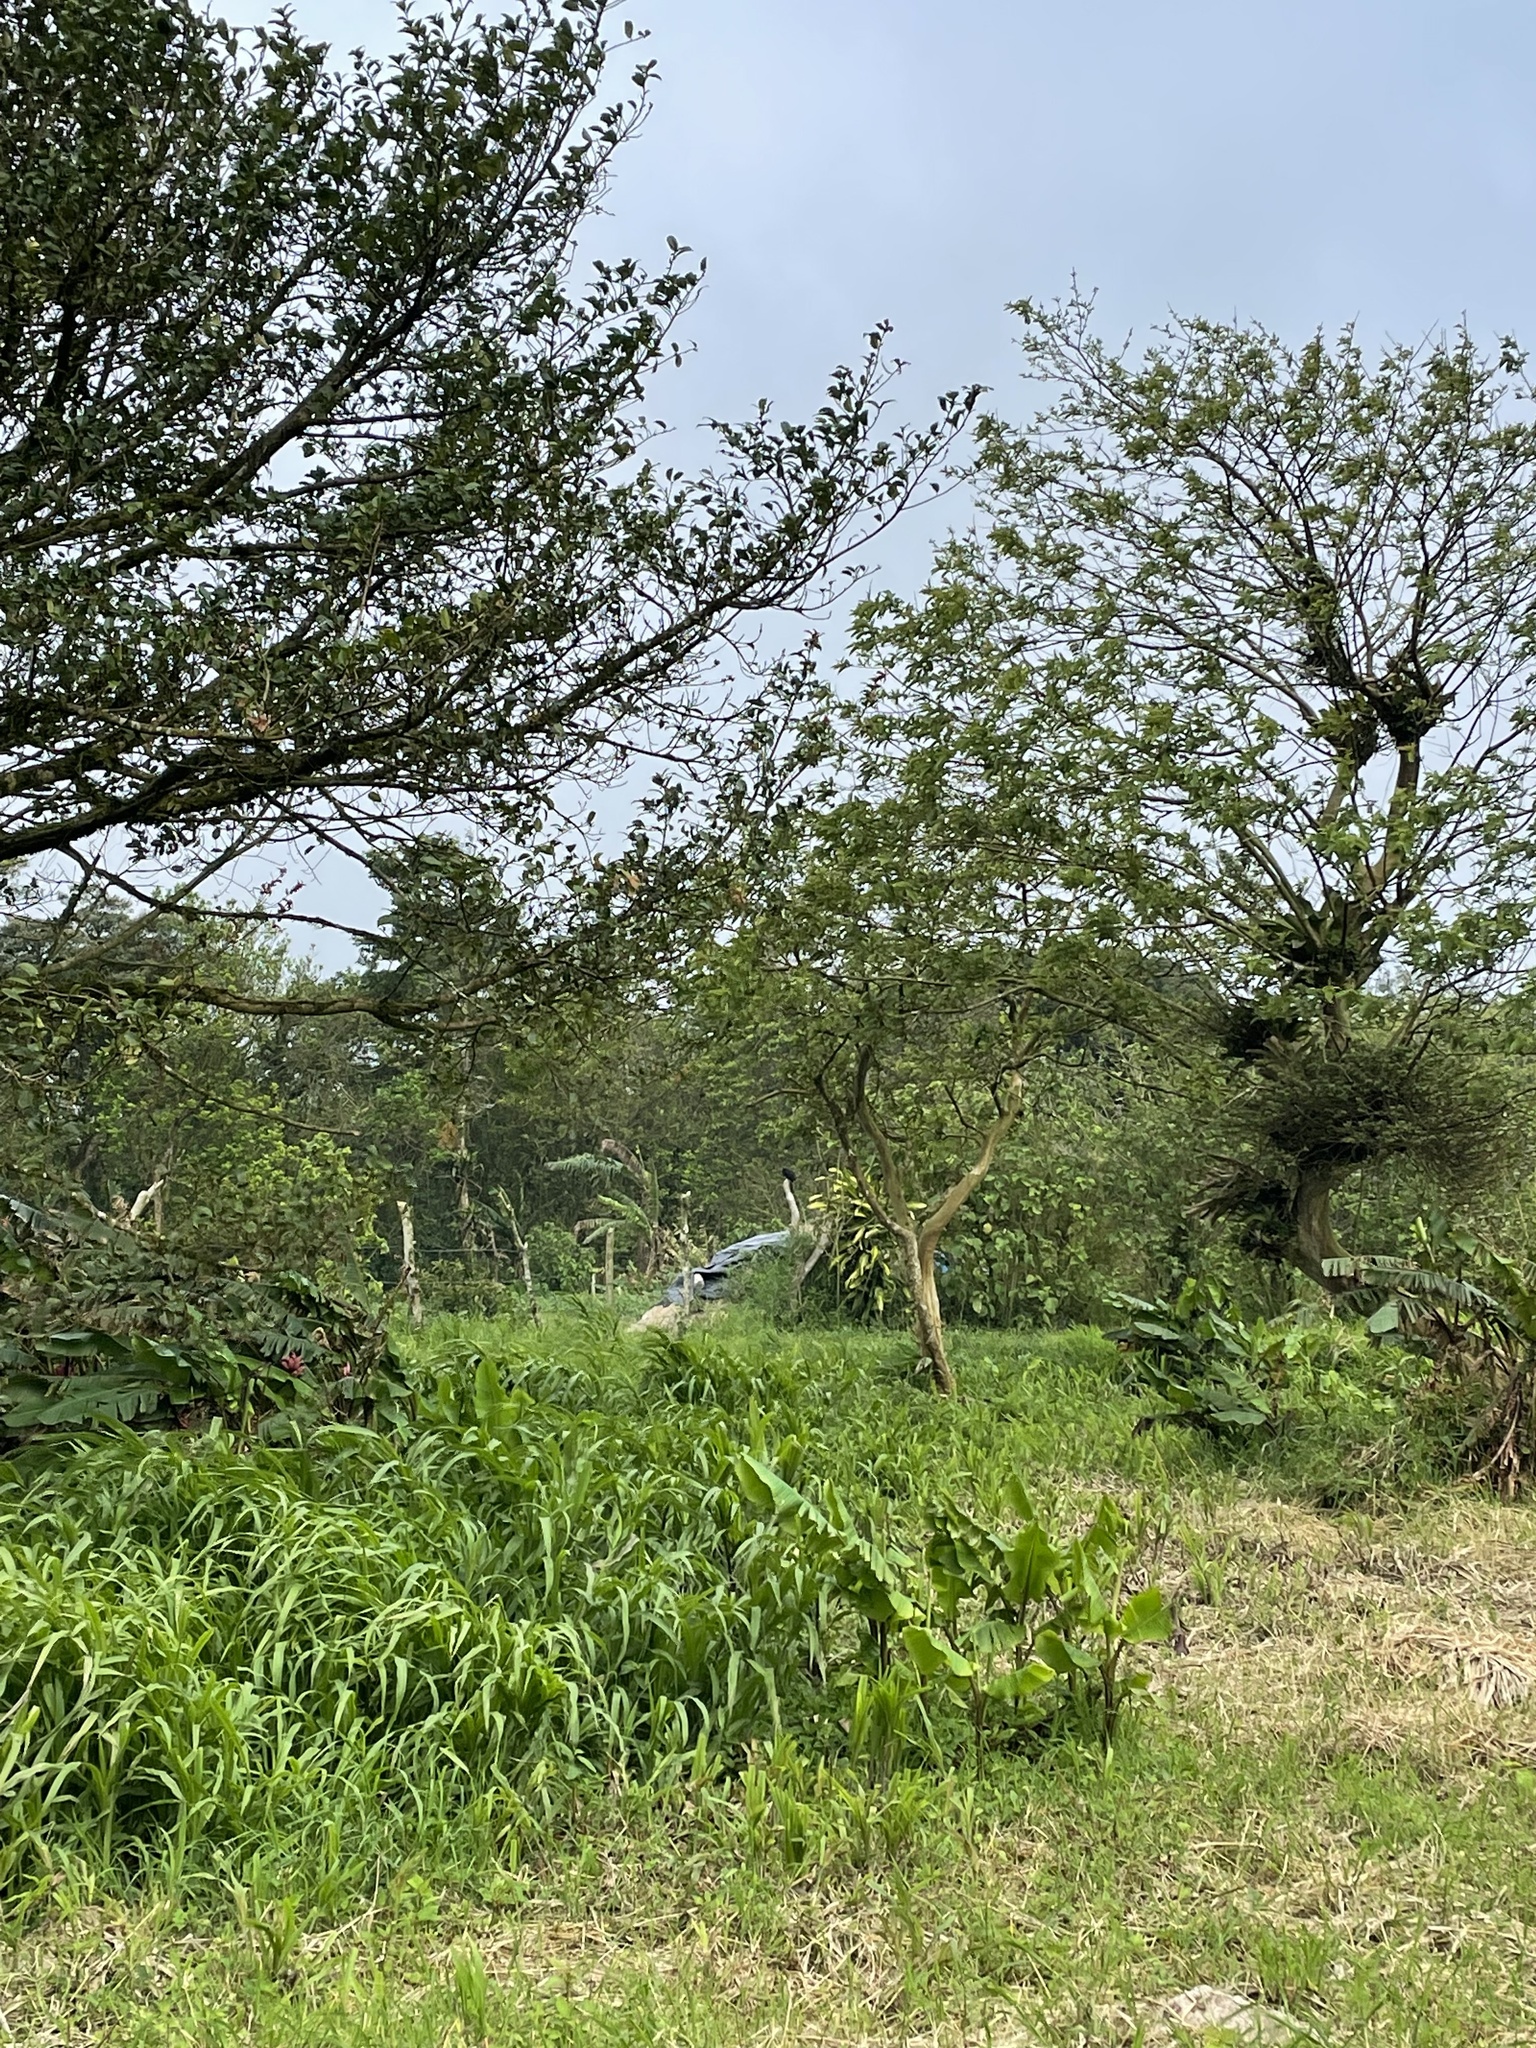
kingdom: Animalia
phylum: Chordata
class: Aves
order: Cuculiformes
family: Cuculidae
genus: Crotophaga
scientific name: Crotophaga ani
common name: Smooth-billed ani
